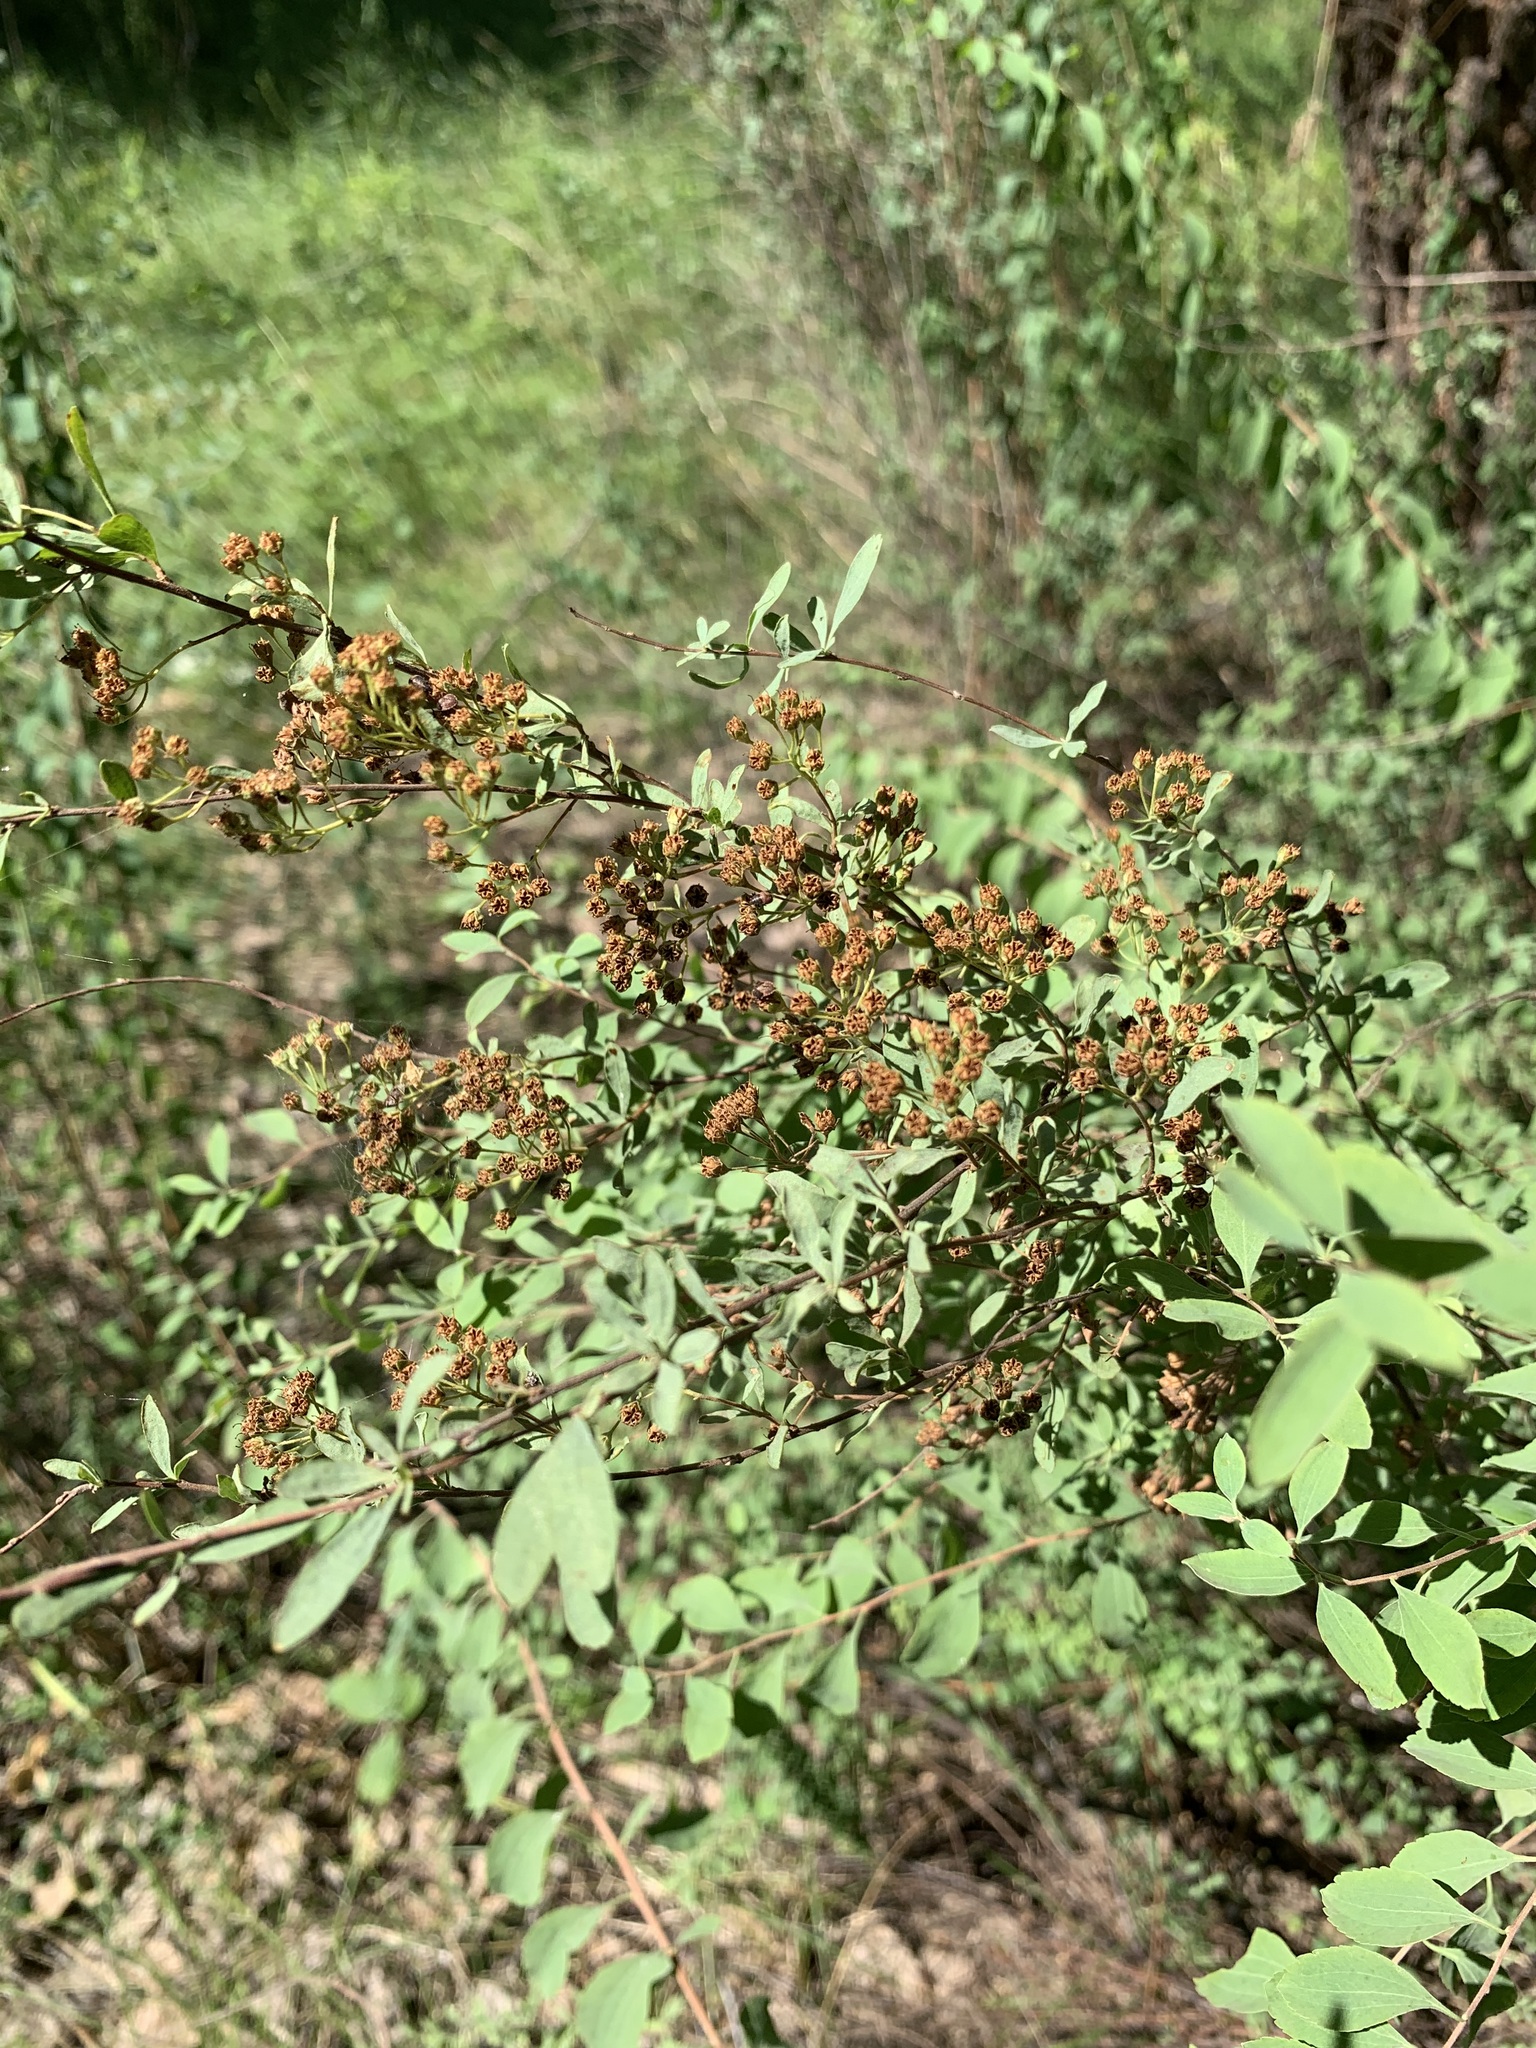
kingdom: Plantae
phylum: Tracheophyta
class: Magnoliopsida
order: Rosales
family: Rosaceae
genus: Spiraea
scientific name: Spiraea crenata
